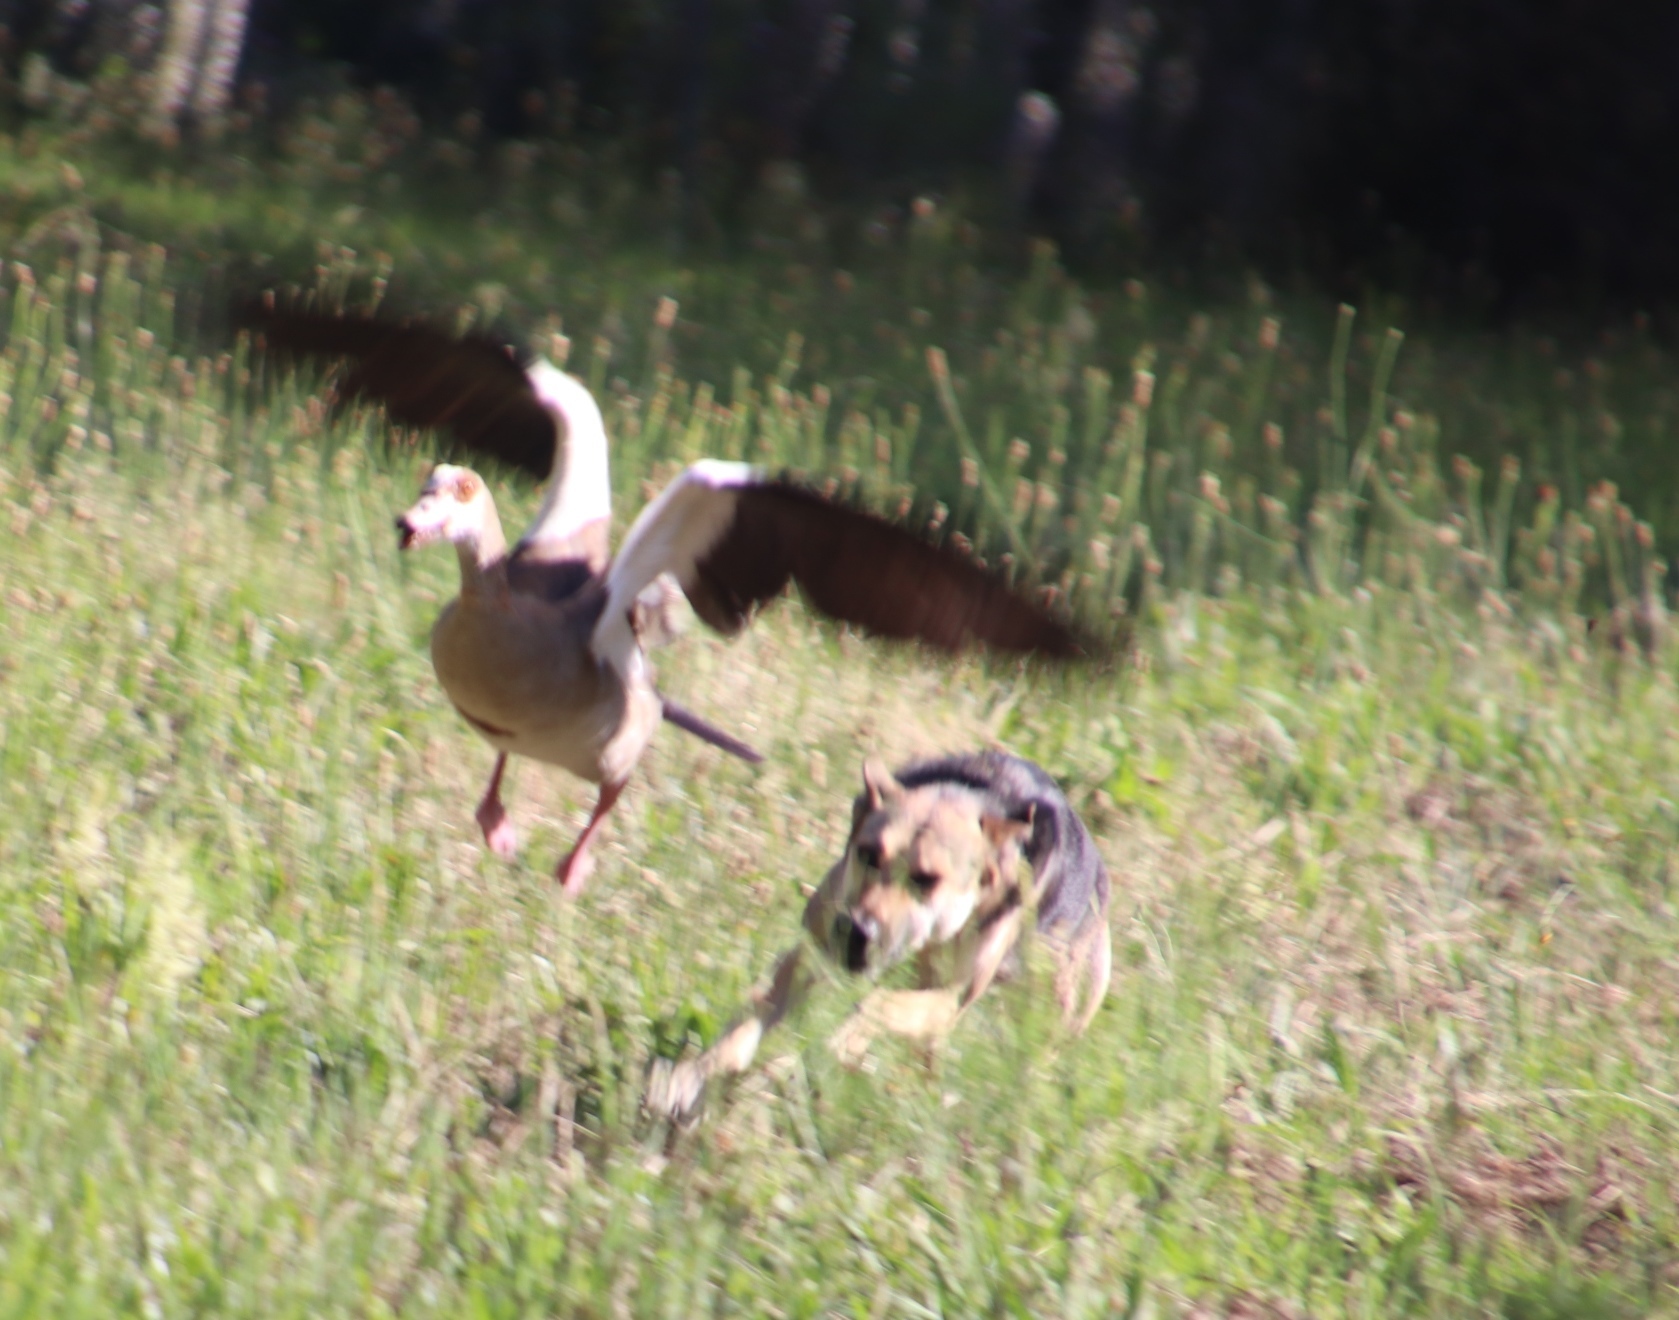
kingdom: Animalia
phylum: Chordata
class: Aves
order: Anseriformes
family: Anatidae
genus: Alopochen
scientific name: Alopochen aegyptiaca
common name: Egyptian goose
